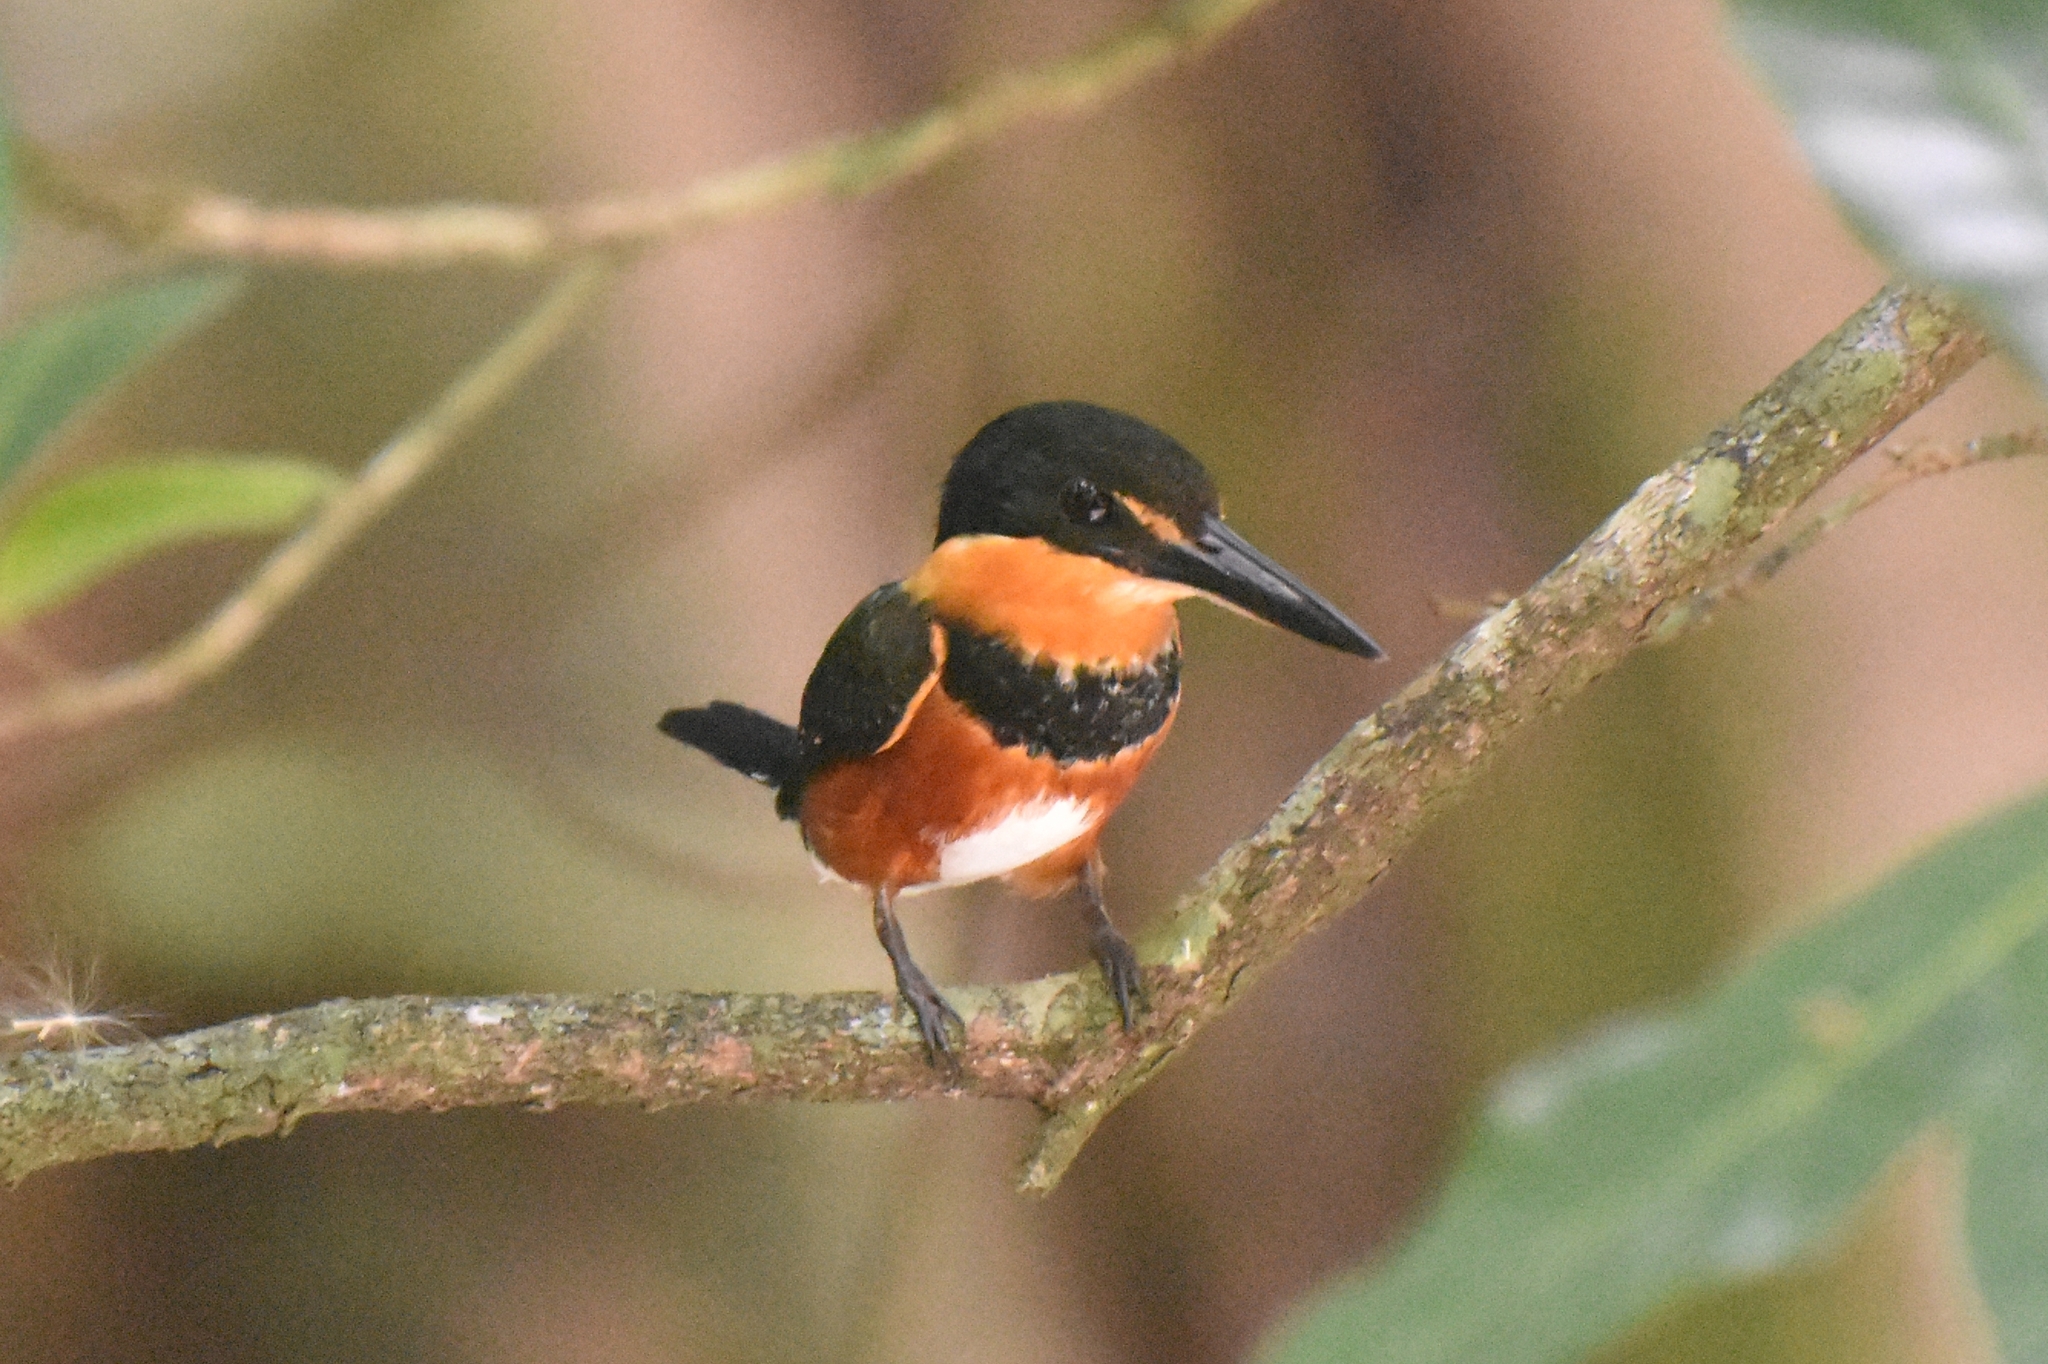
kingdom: Animalia
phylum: Chordata
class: Aves
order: Coraciiformes
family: Alcedinidae
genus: Chloroceryle
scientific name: Chloroceryle aenea
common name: American pygmy kingfisher
